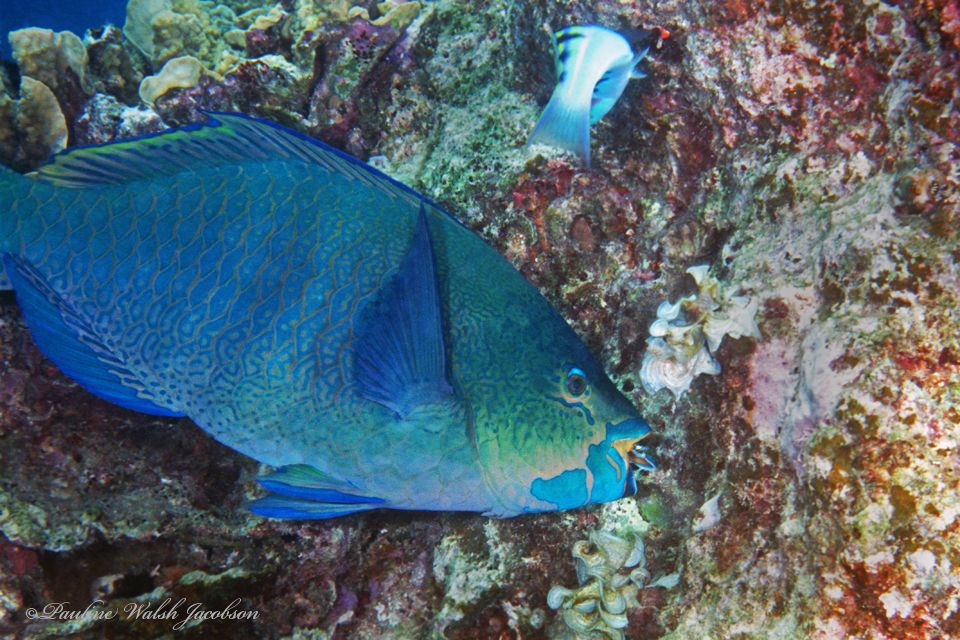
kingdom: Animalia
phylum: Chordata
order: Perciformes
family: Scaridae
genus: Scarus
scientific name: Scarus altipinnis
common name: Minifin parrotfish
